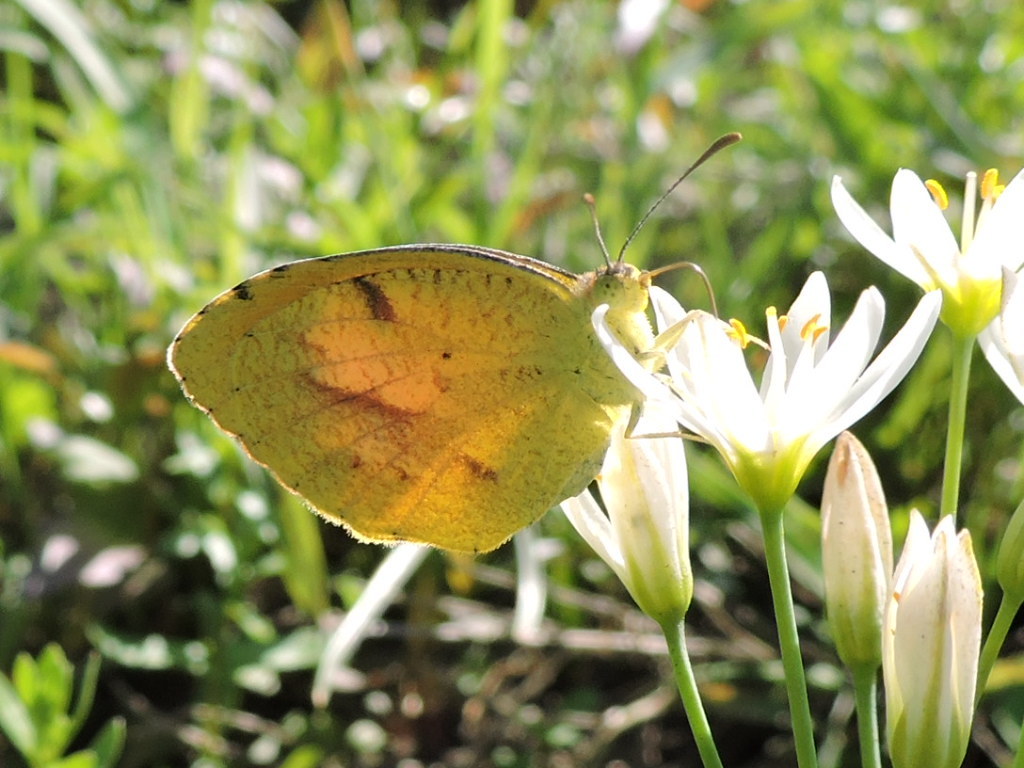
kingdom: Animalia
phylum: Arthropoda
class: Insecta
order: Lepidoptera
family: Pieridae
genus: Abaeis
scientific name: Abaeis nicippe
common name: Sleepy orange
